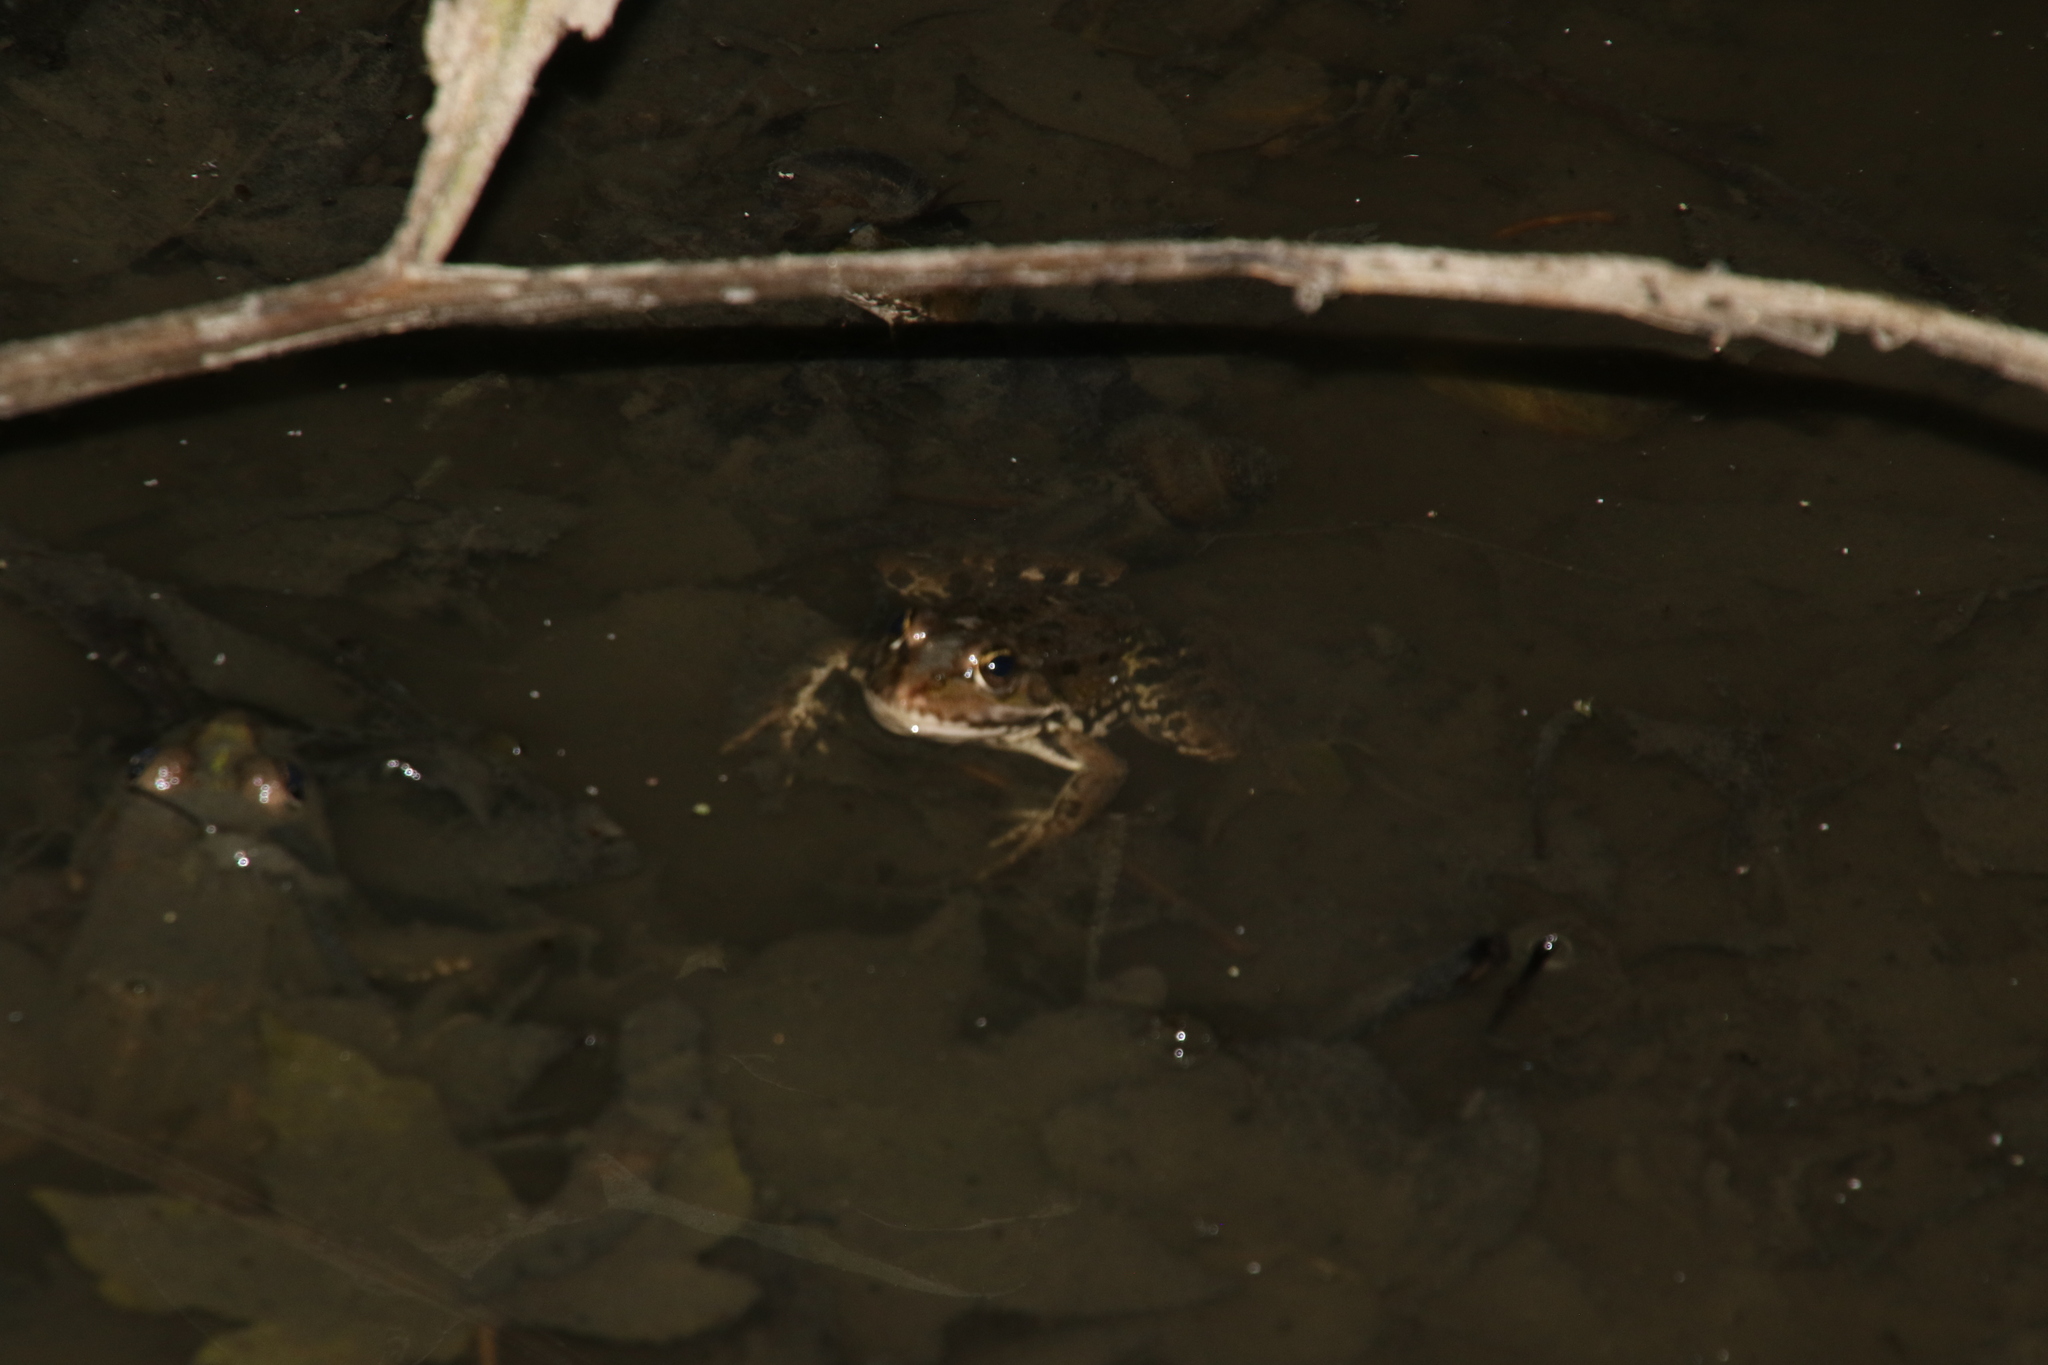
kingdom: Animalia
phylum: Chordata
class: Amphibia
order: Anura
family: Ranidae
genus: Pelophylax
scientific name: Pelophylax ridibundus
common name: Marsh frog
